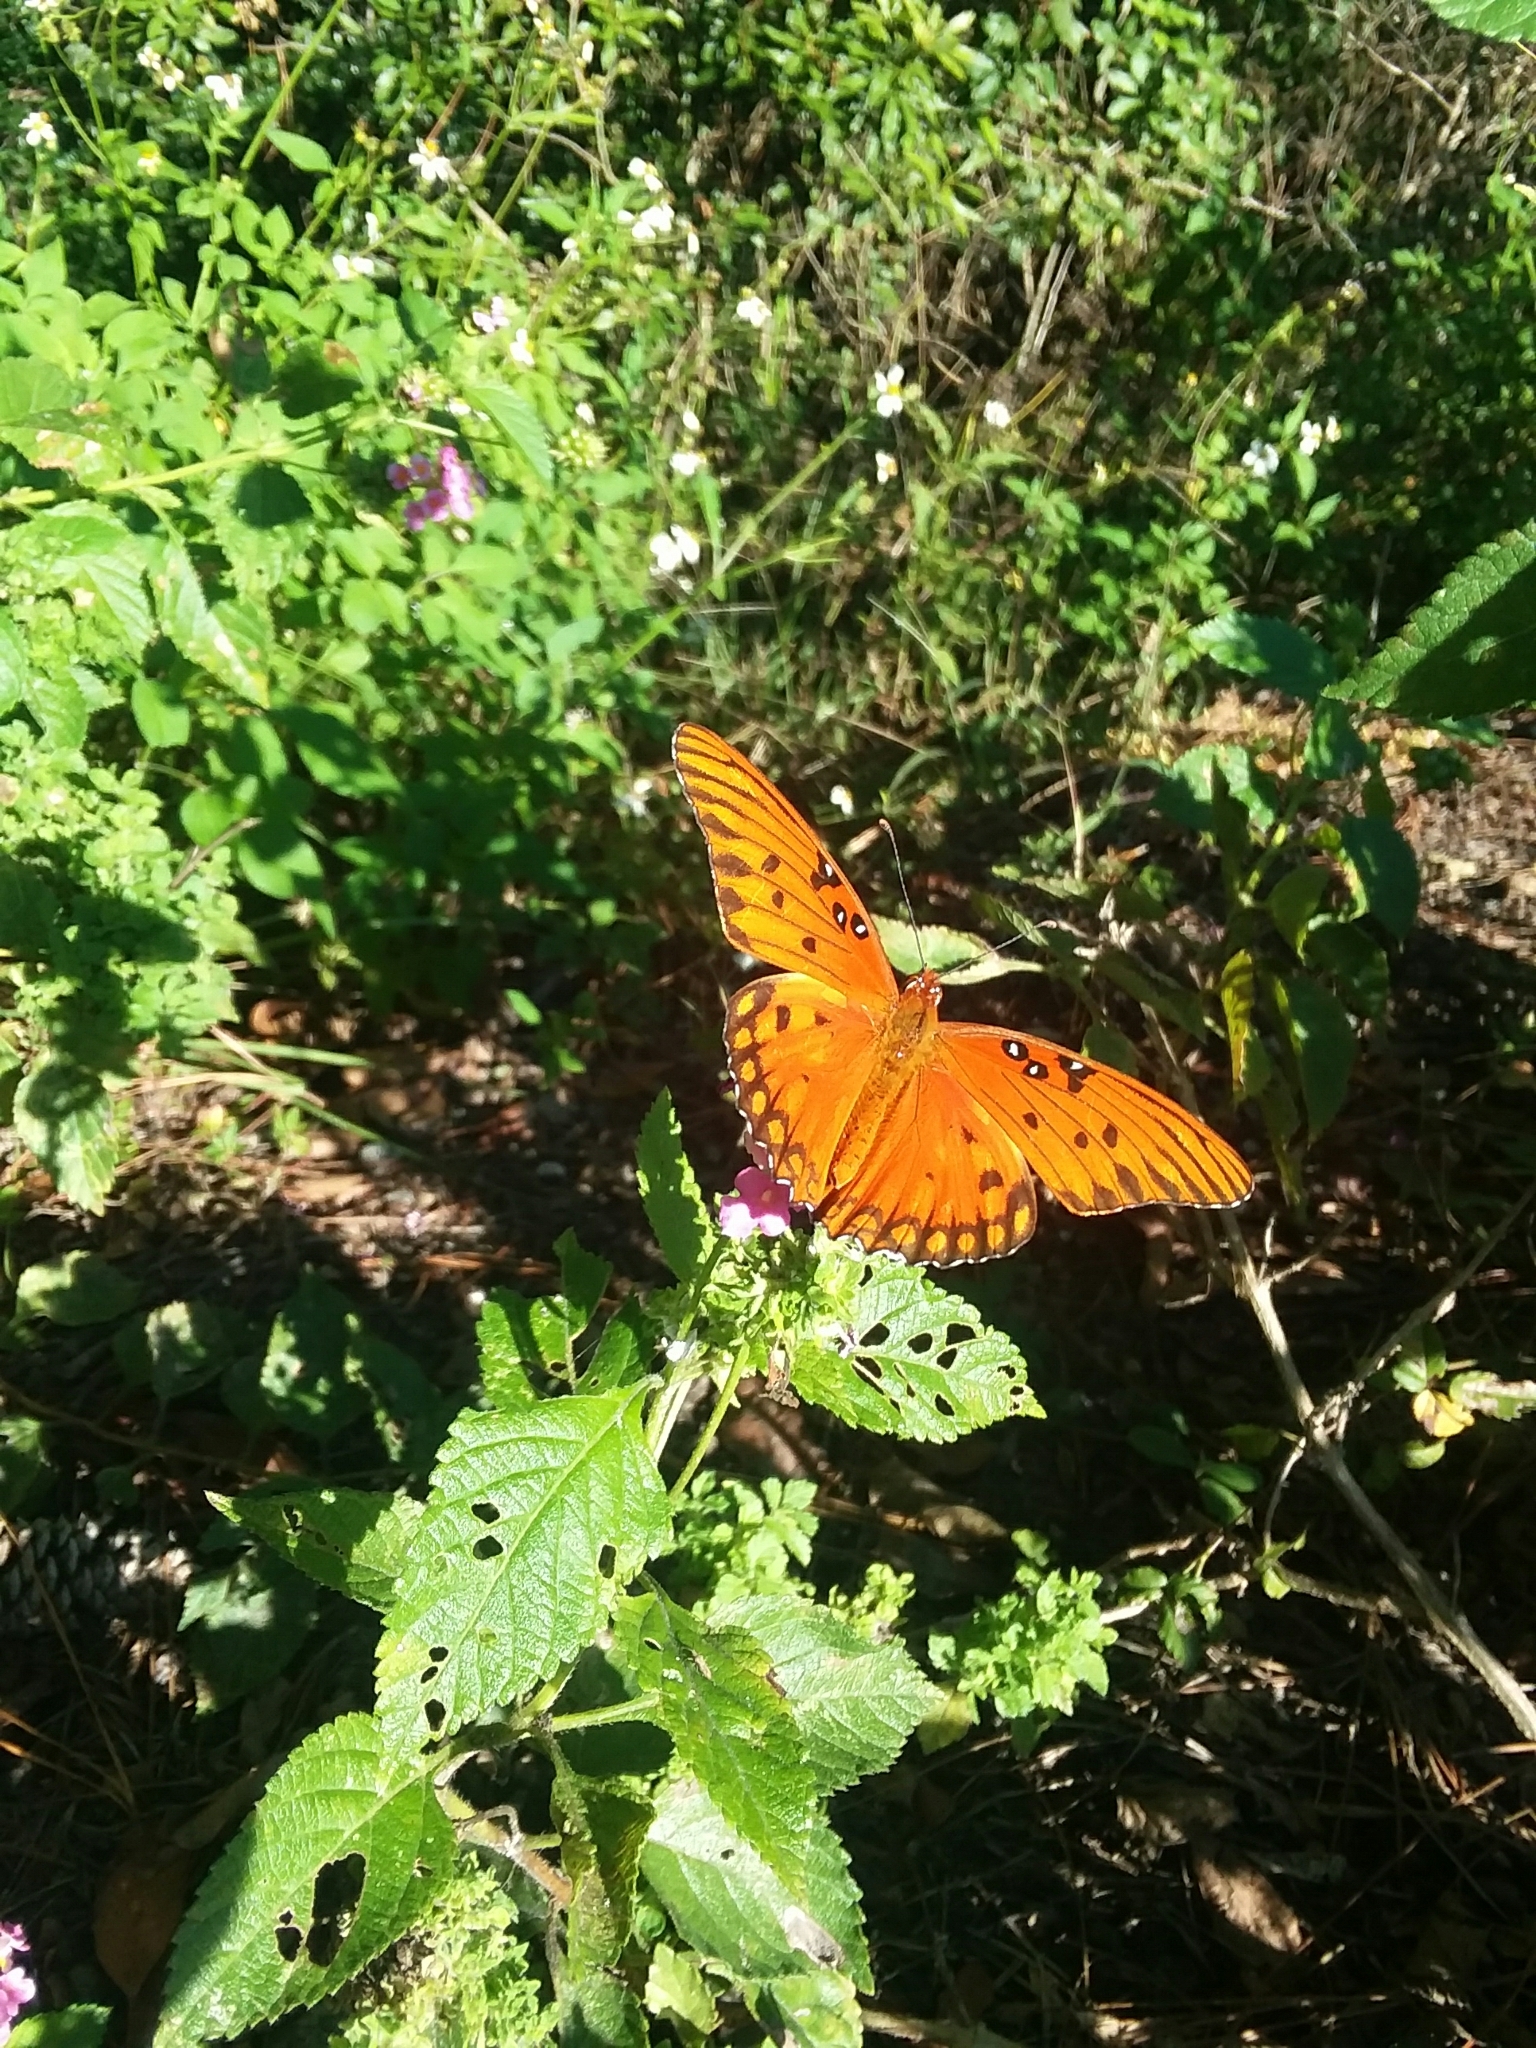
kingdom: Animalia
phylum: Arthropoda
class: Insecta
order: Lepidoptera
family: Nymphalidae
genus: Dione
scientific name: Dione vanillae
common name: Gulf fritillary
